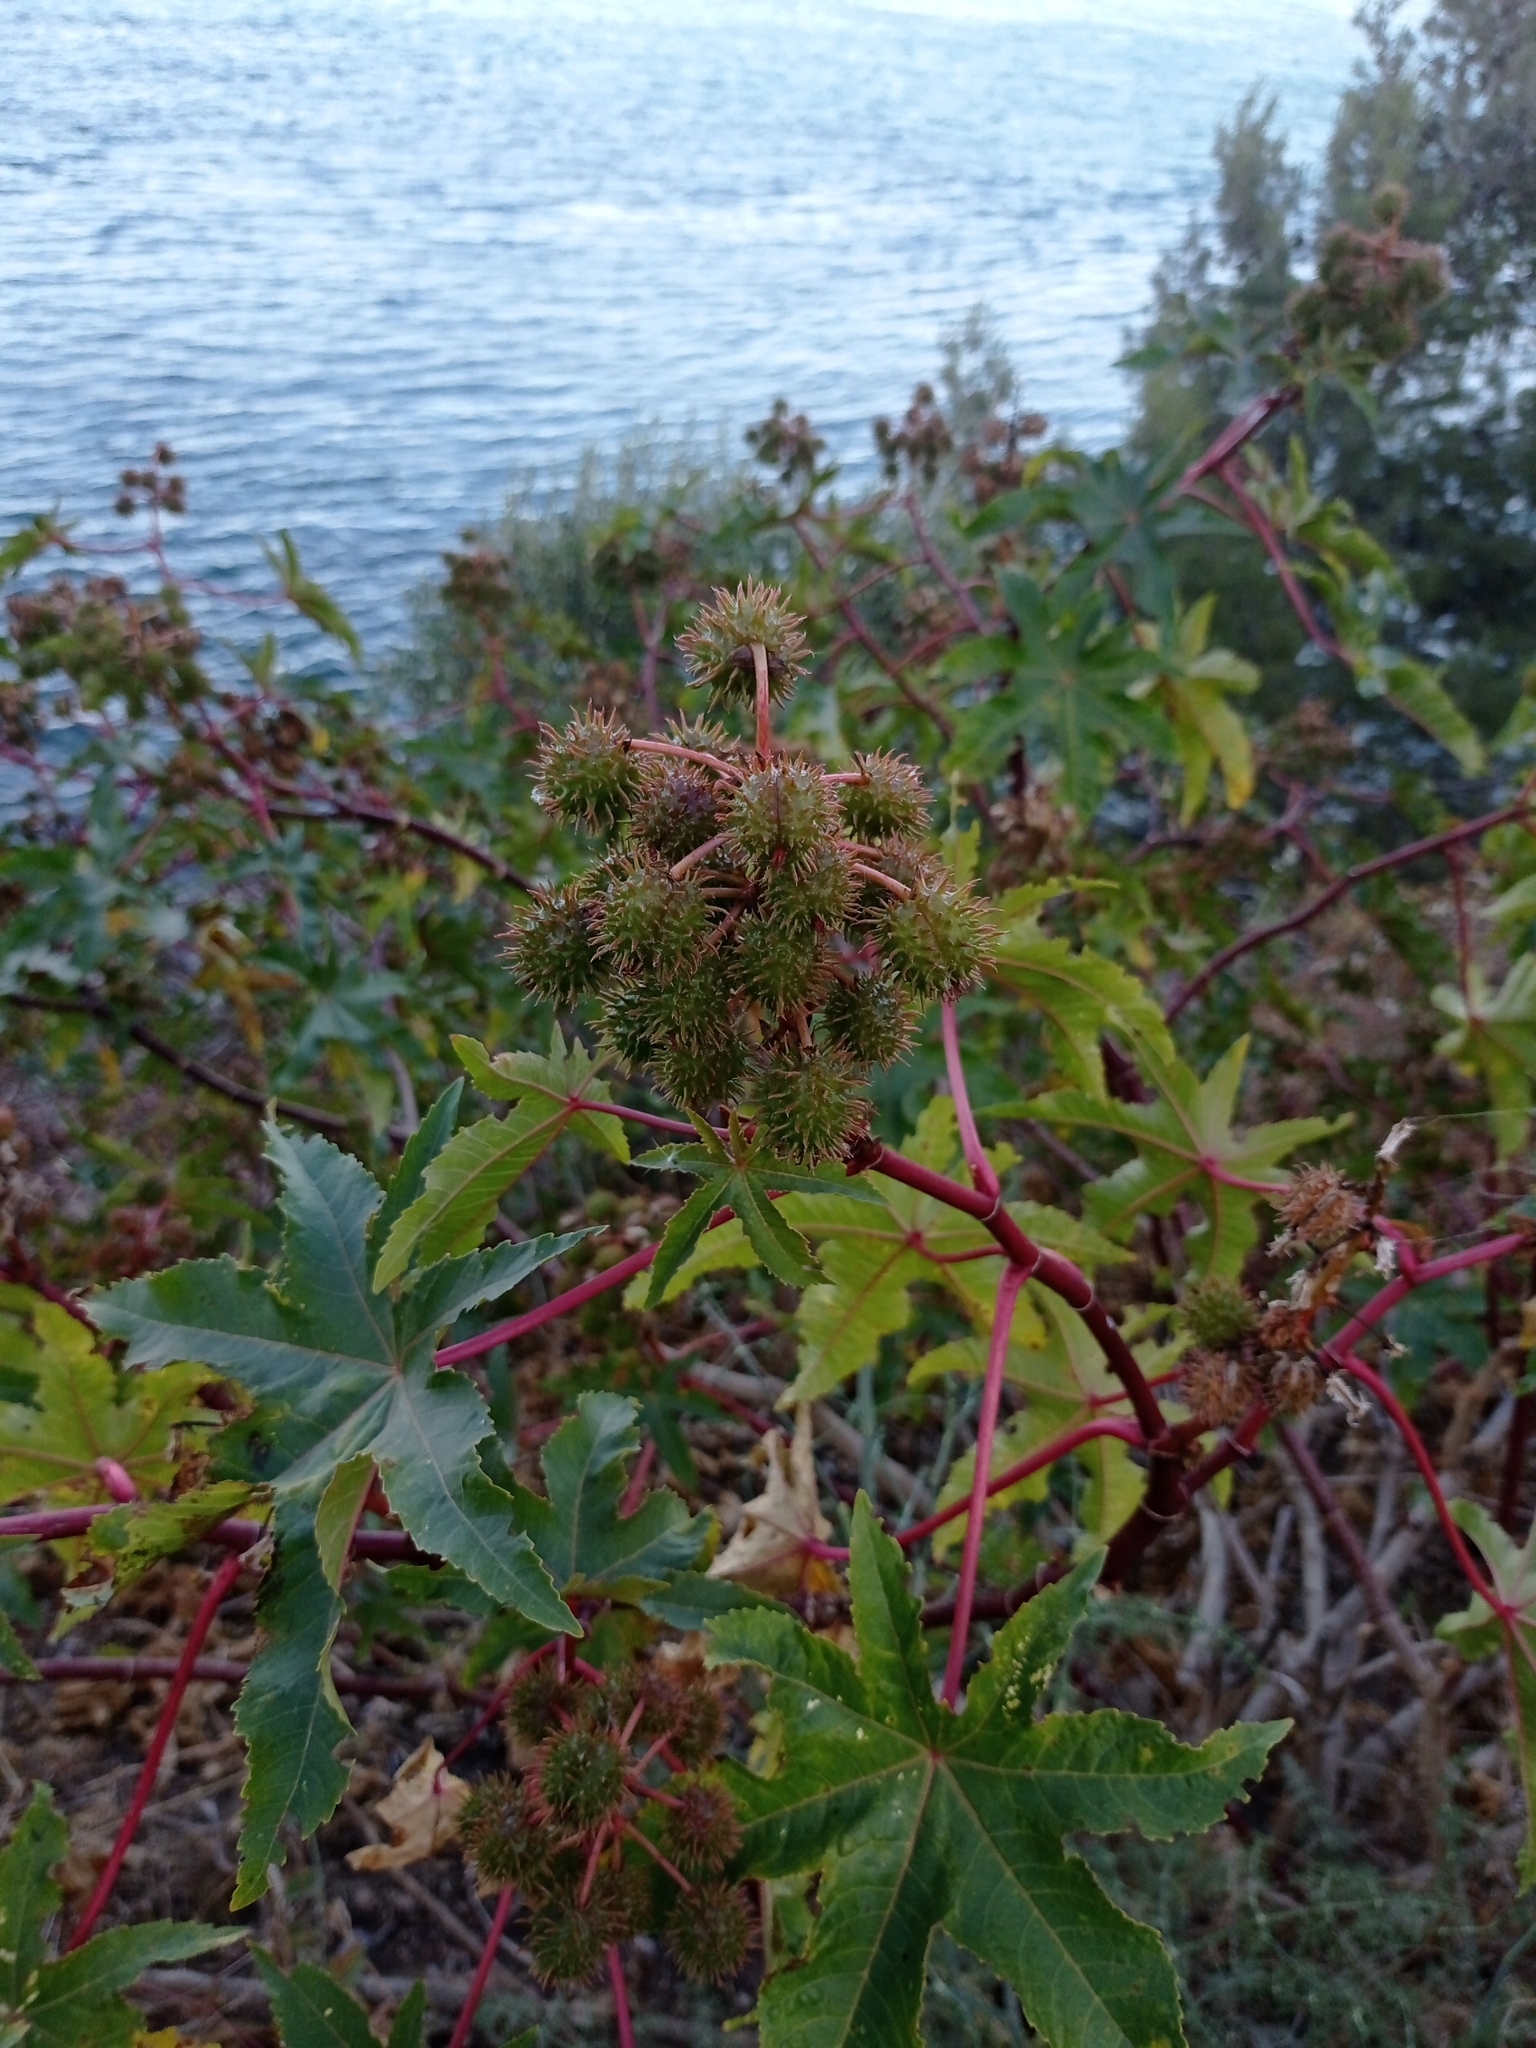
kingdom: Plantae
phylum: Tracheophyta
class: Magnoliopsida
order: Malpighiales
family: Euphorbiaceae
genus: Ricinus
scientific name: Ricinus communis
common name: Castor-oil-plant
